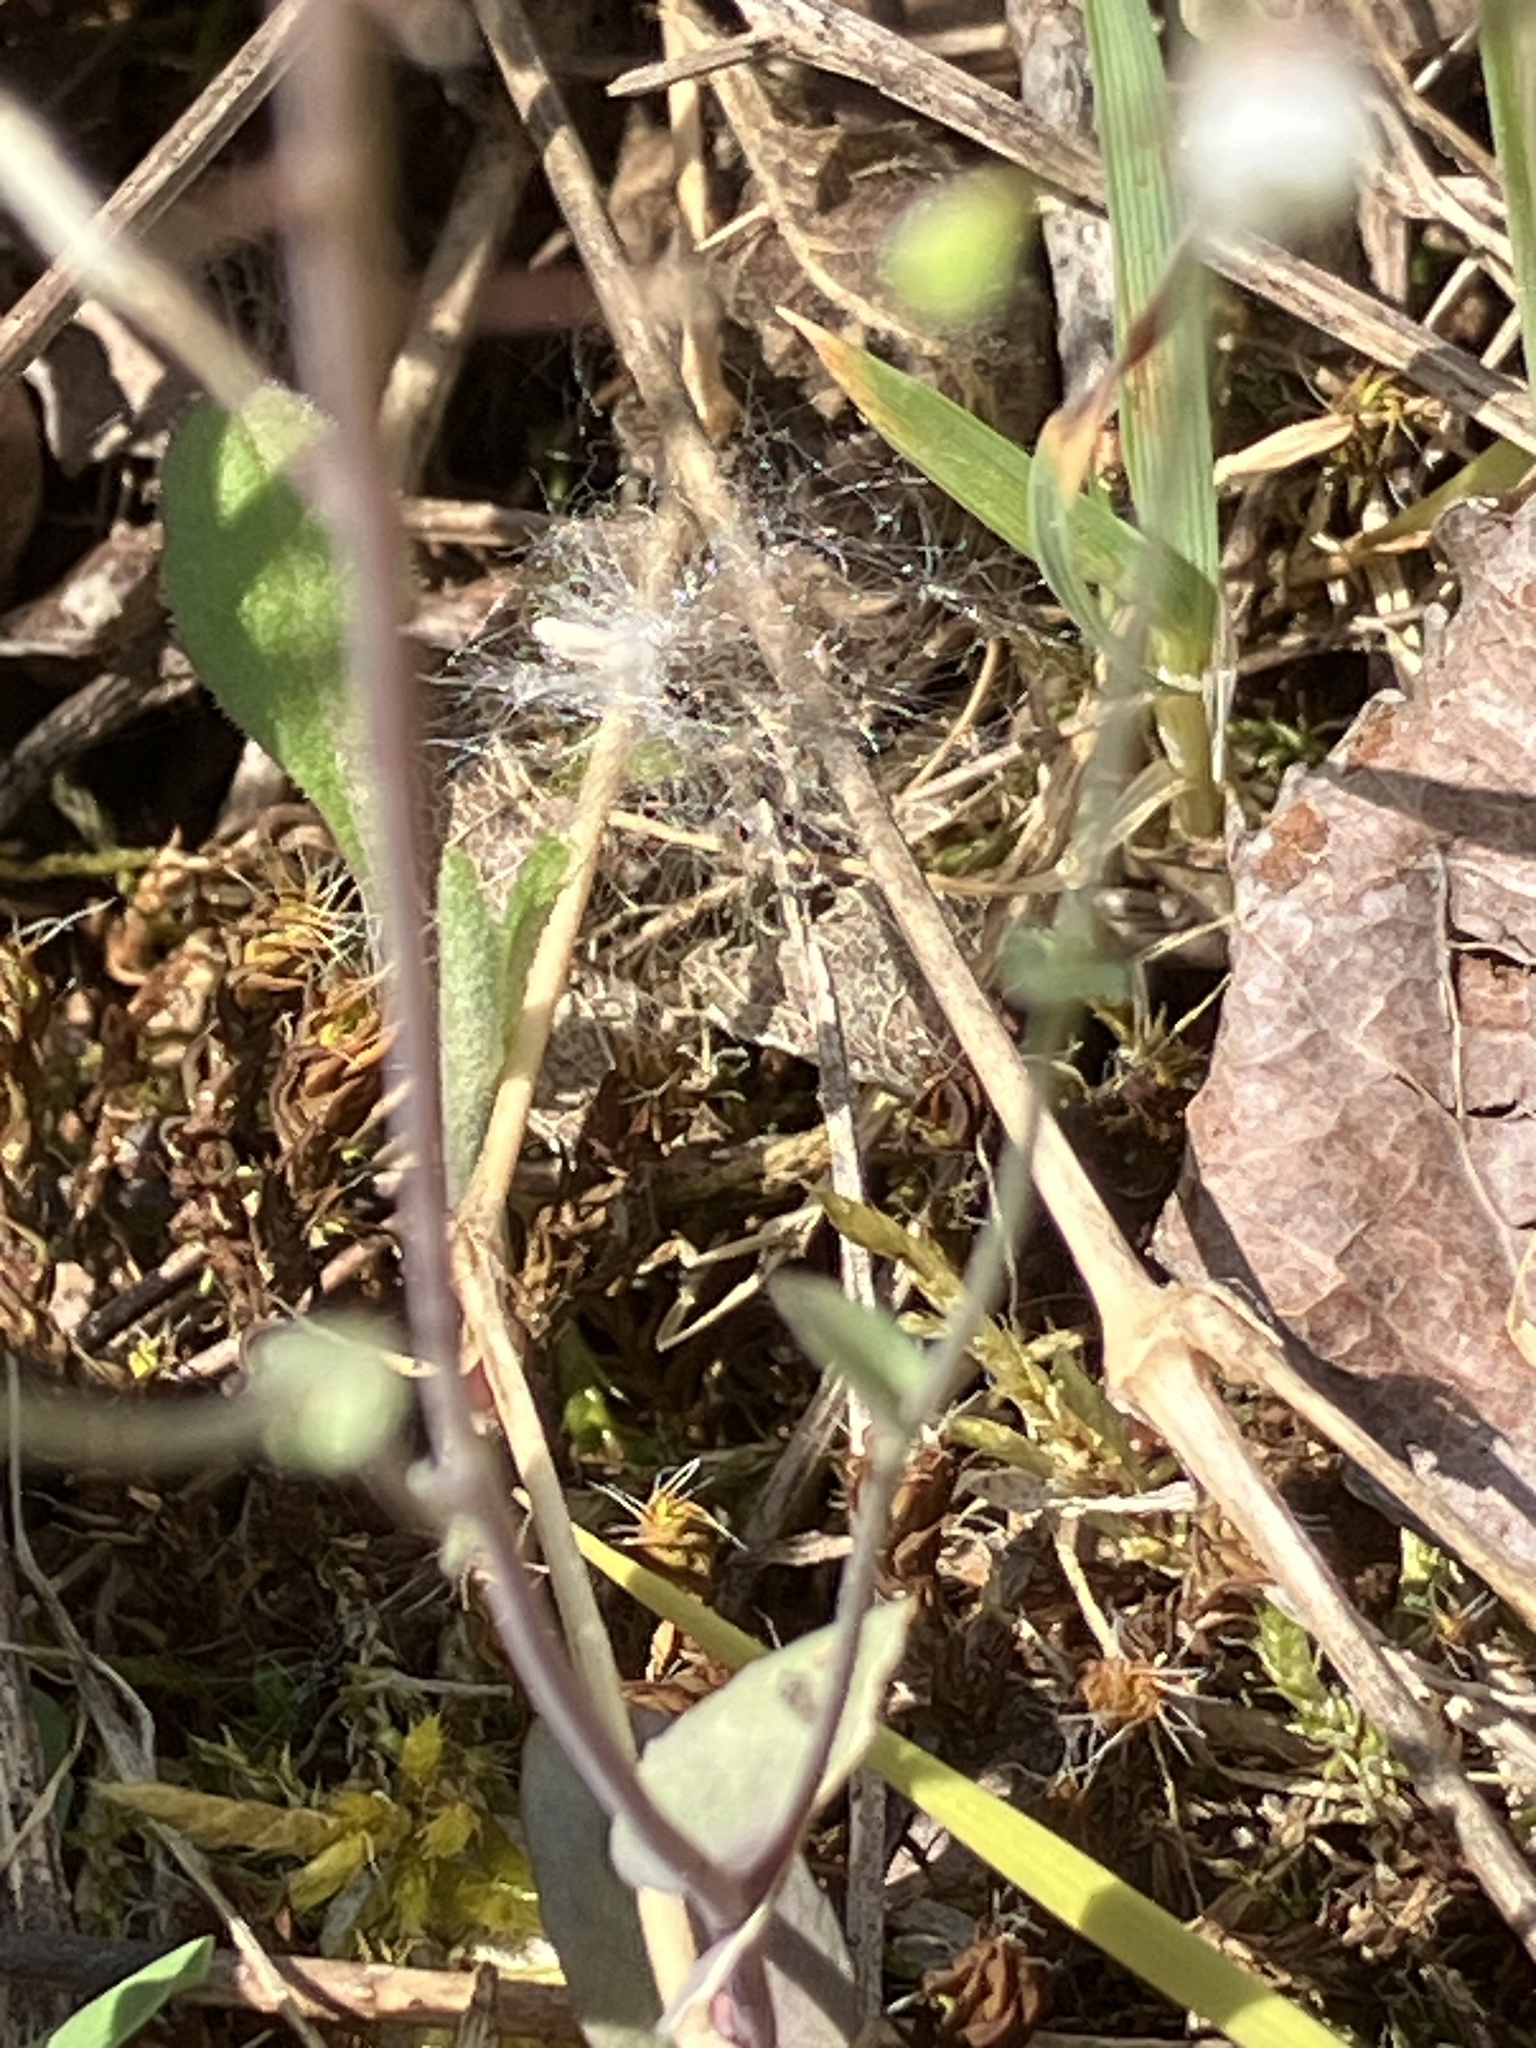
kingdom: Plantae
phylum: Tracheophyta
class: Magnoliopsida
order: Brassicales
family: Brassicaceae
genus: Noccaea
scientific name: Noccaea perfoliata
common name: Perfoliate pennycress
